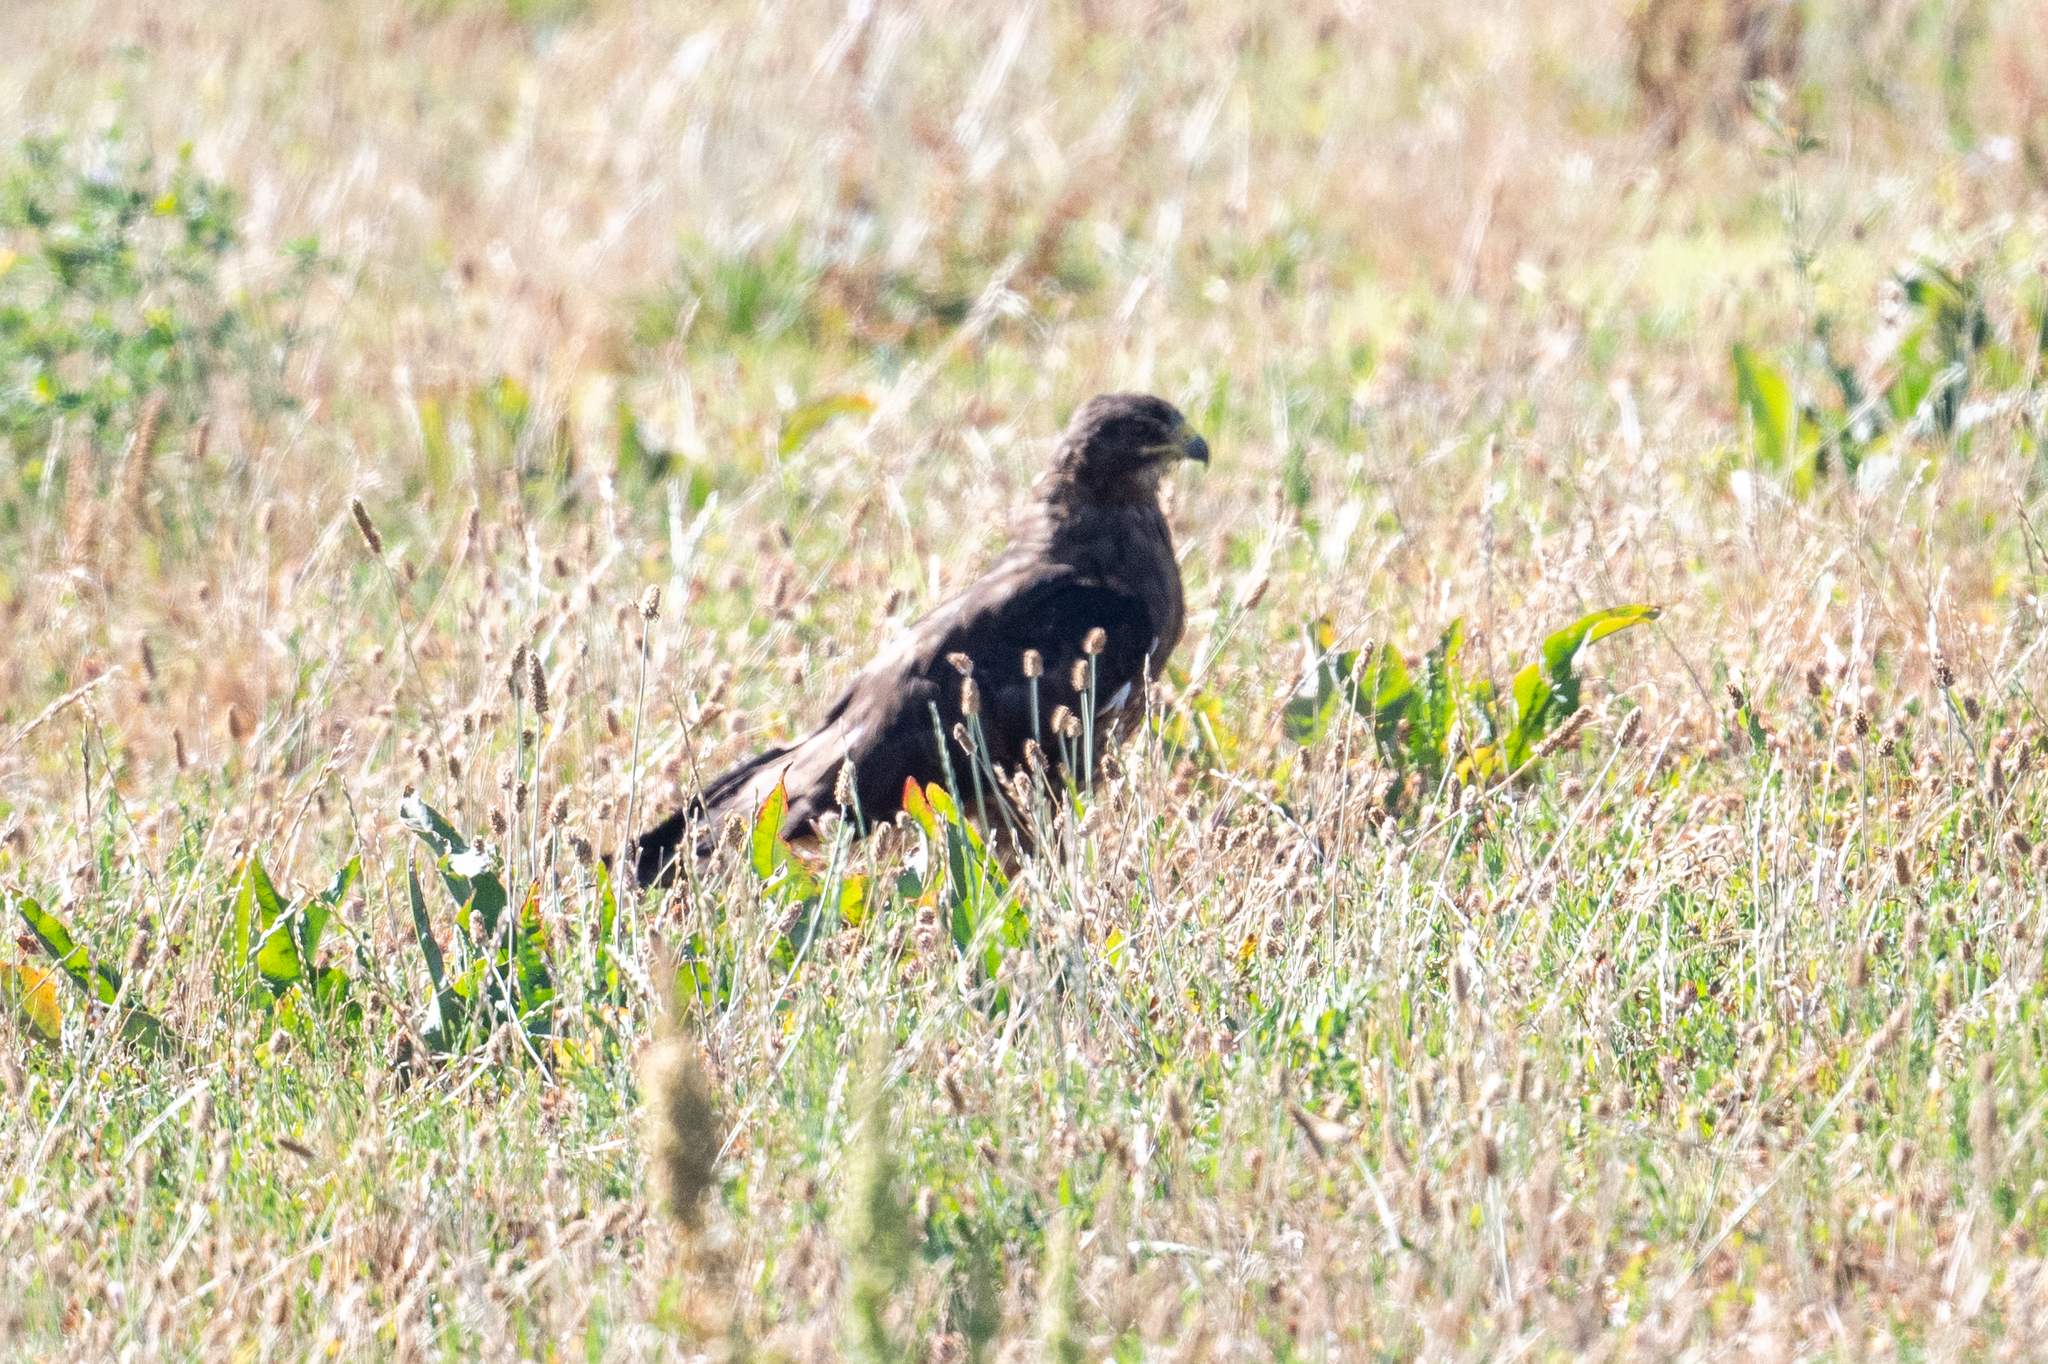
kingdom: Animalia
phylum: Chordata
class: Aves
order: Accipitriformes
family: Accipitridae
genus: Buteo
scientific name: Buteo swainsoni
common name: Swainson's hawk
